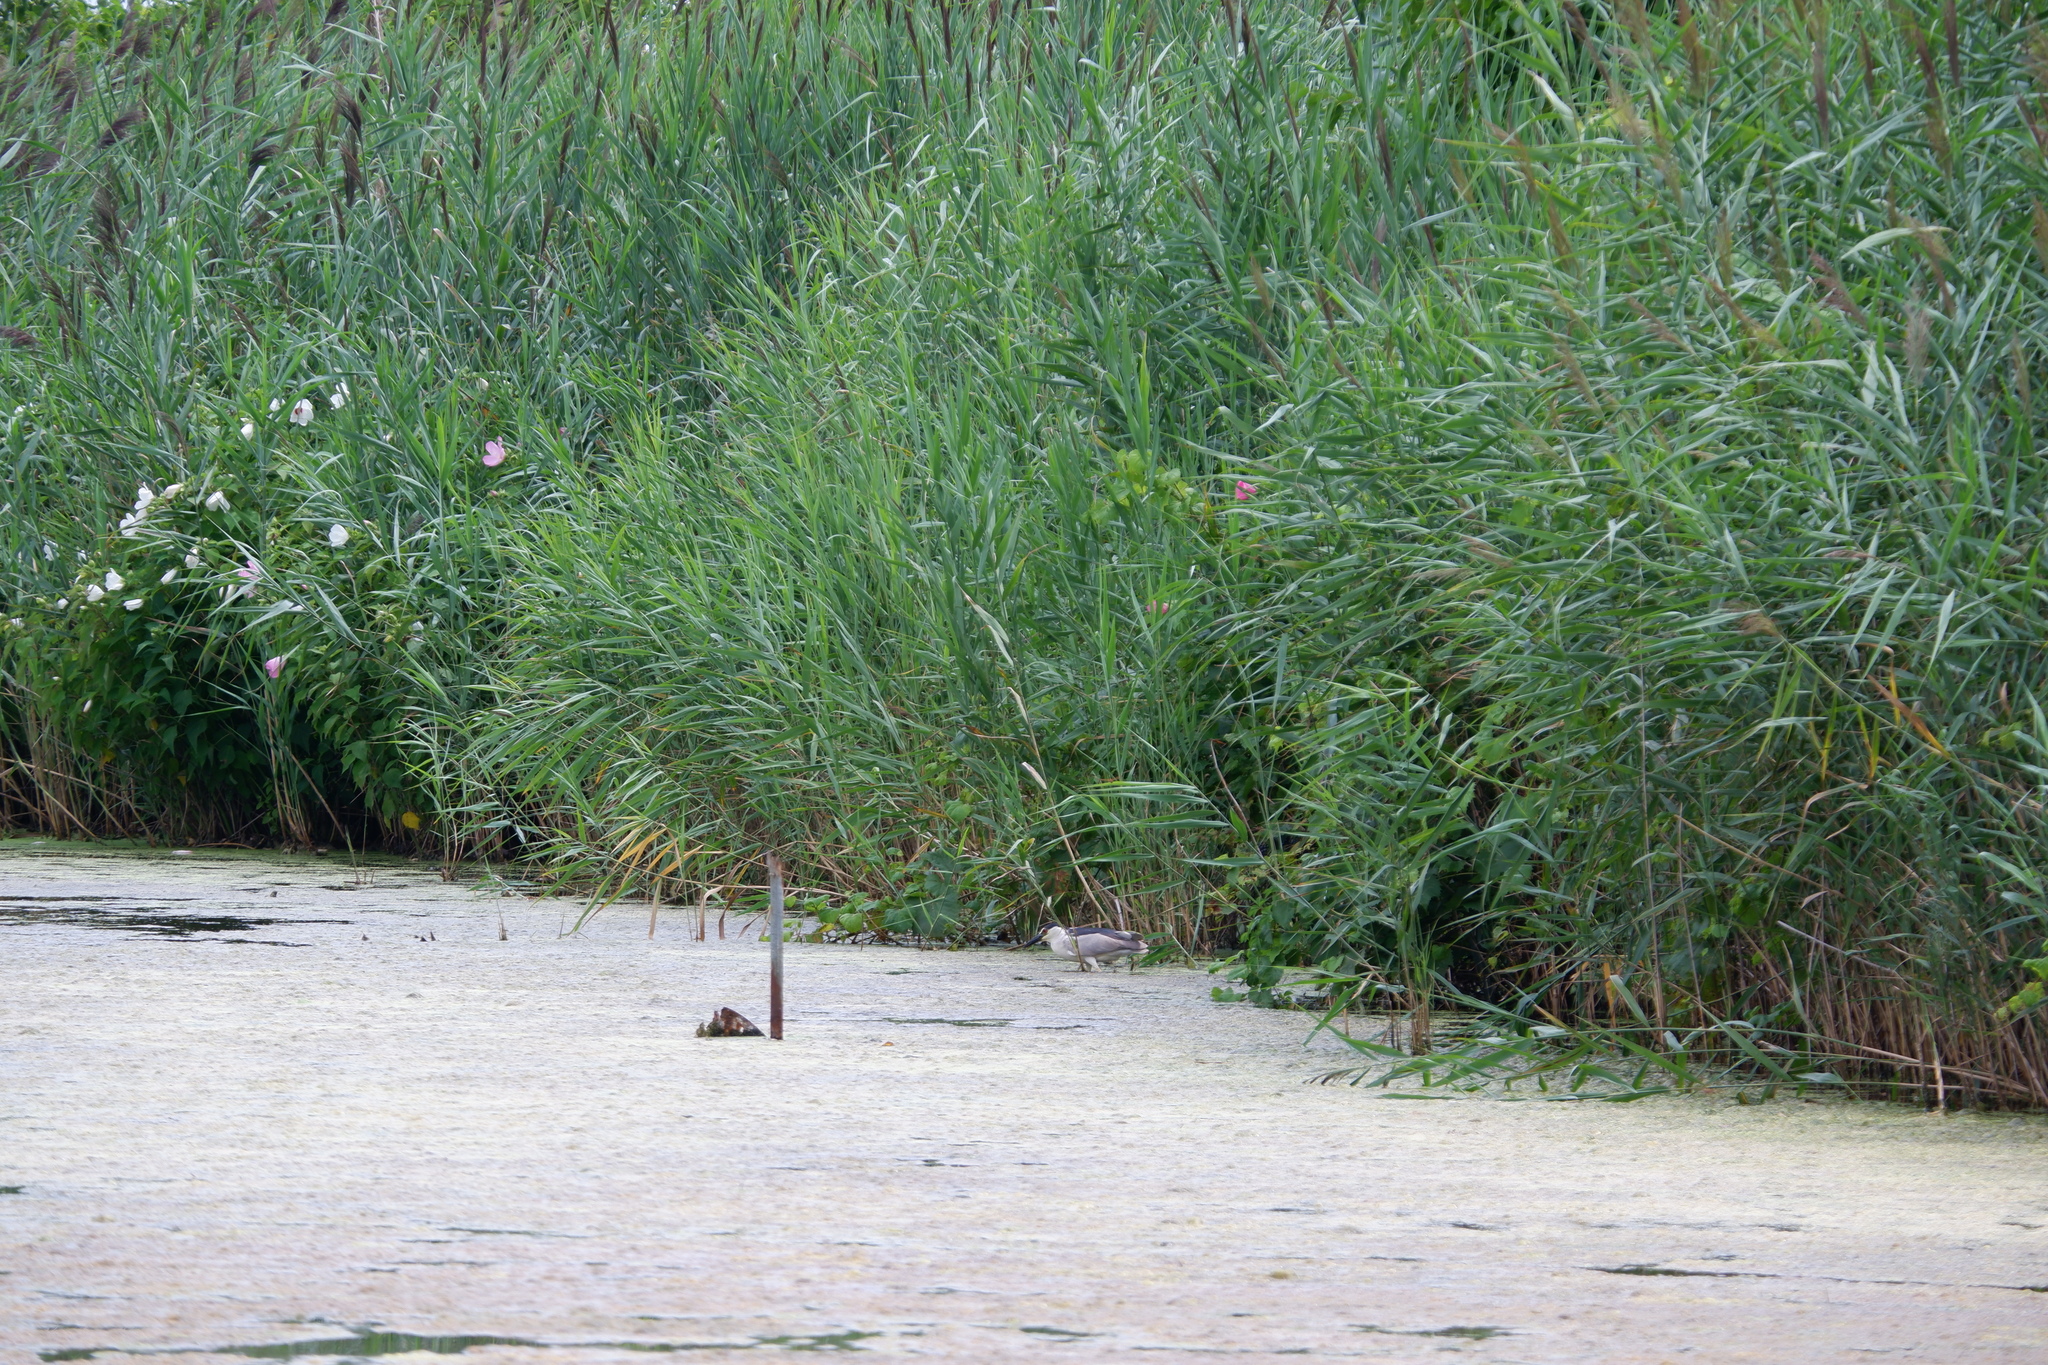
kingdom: Animalia
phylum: Chordata
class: Aves
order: Pelecaniformes
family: Ardeidae
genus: Nycticorax
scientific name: Nycticorax nycticorax
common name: Black-crowned night heron
